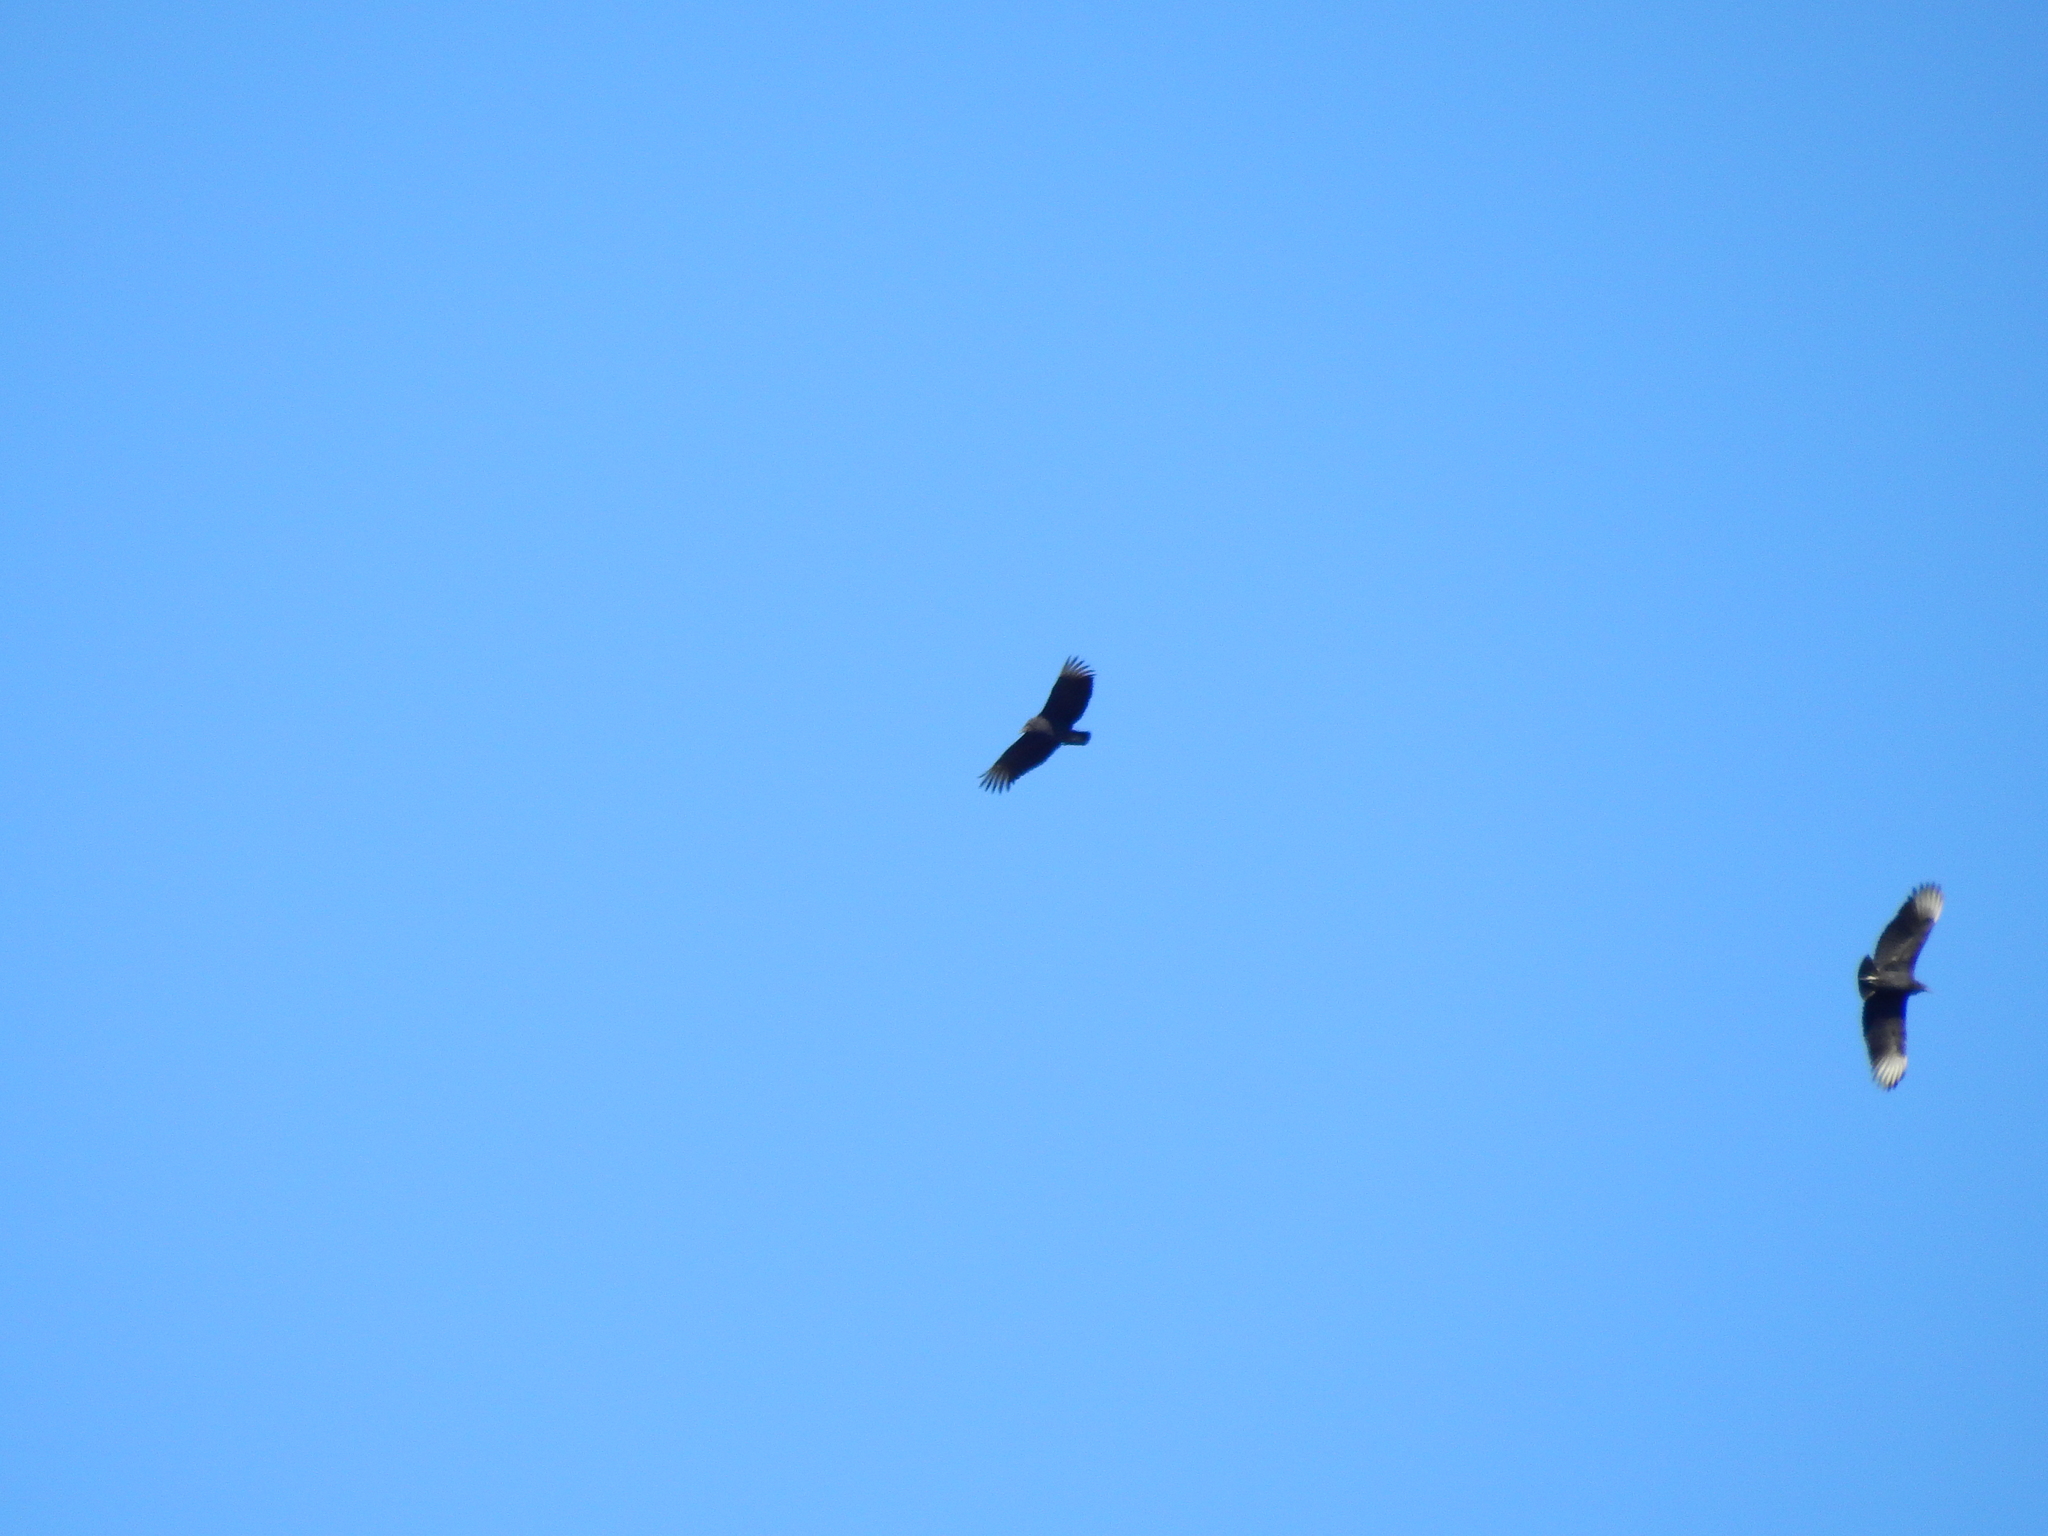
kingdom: Animalia
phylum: Chordata
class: Aves
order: Accipitriformes
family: Cathartidae
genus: Coragyps
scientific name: Coragyps atratus
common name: Black vulture
